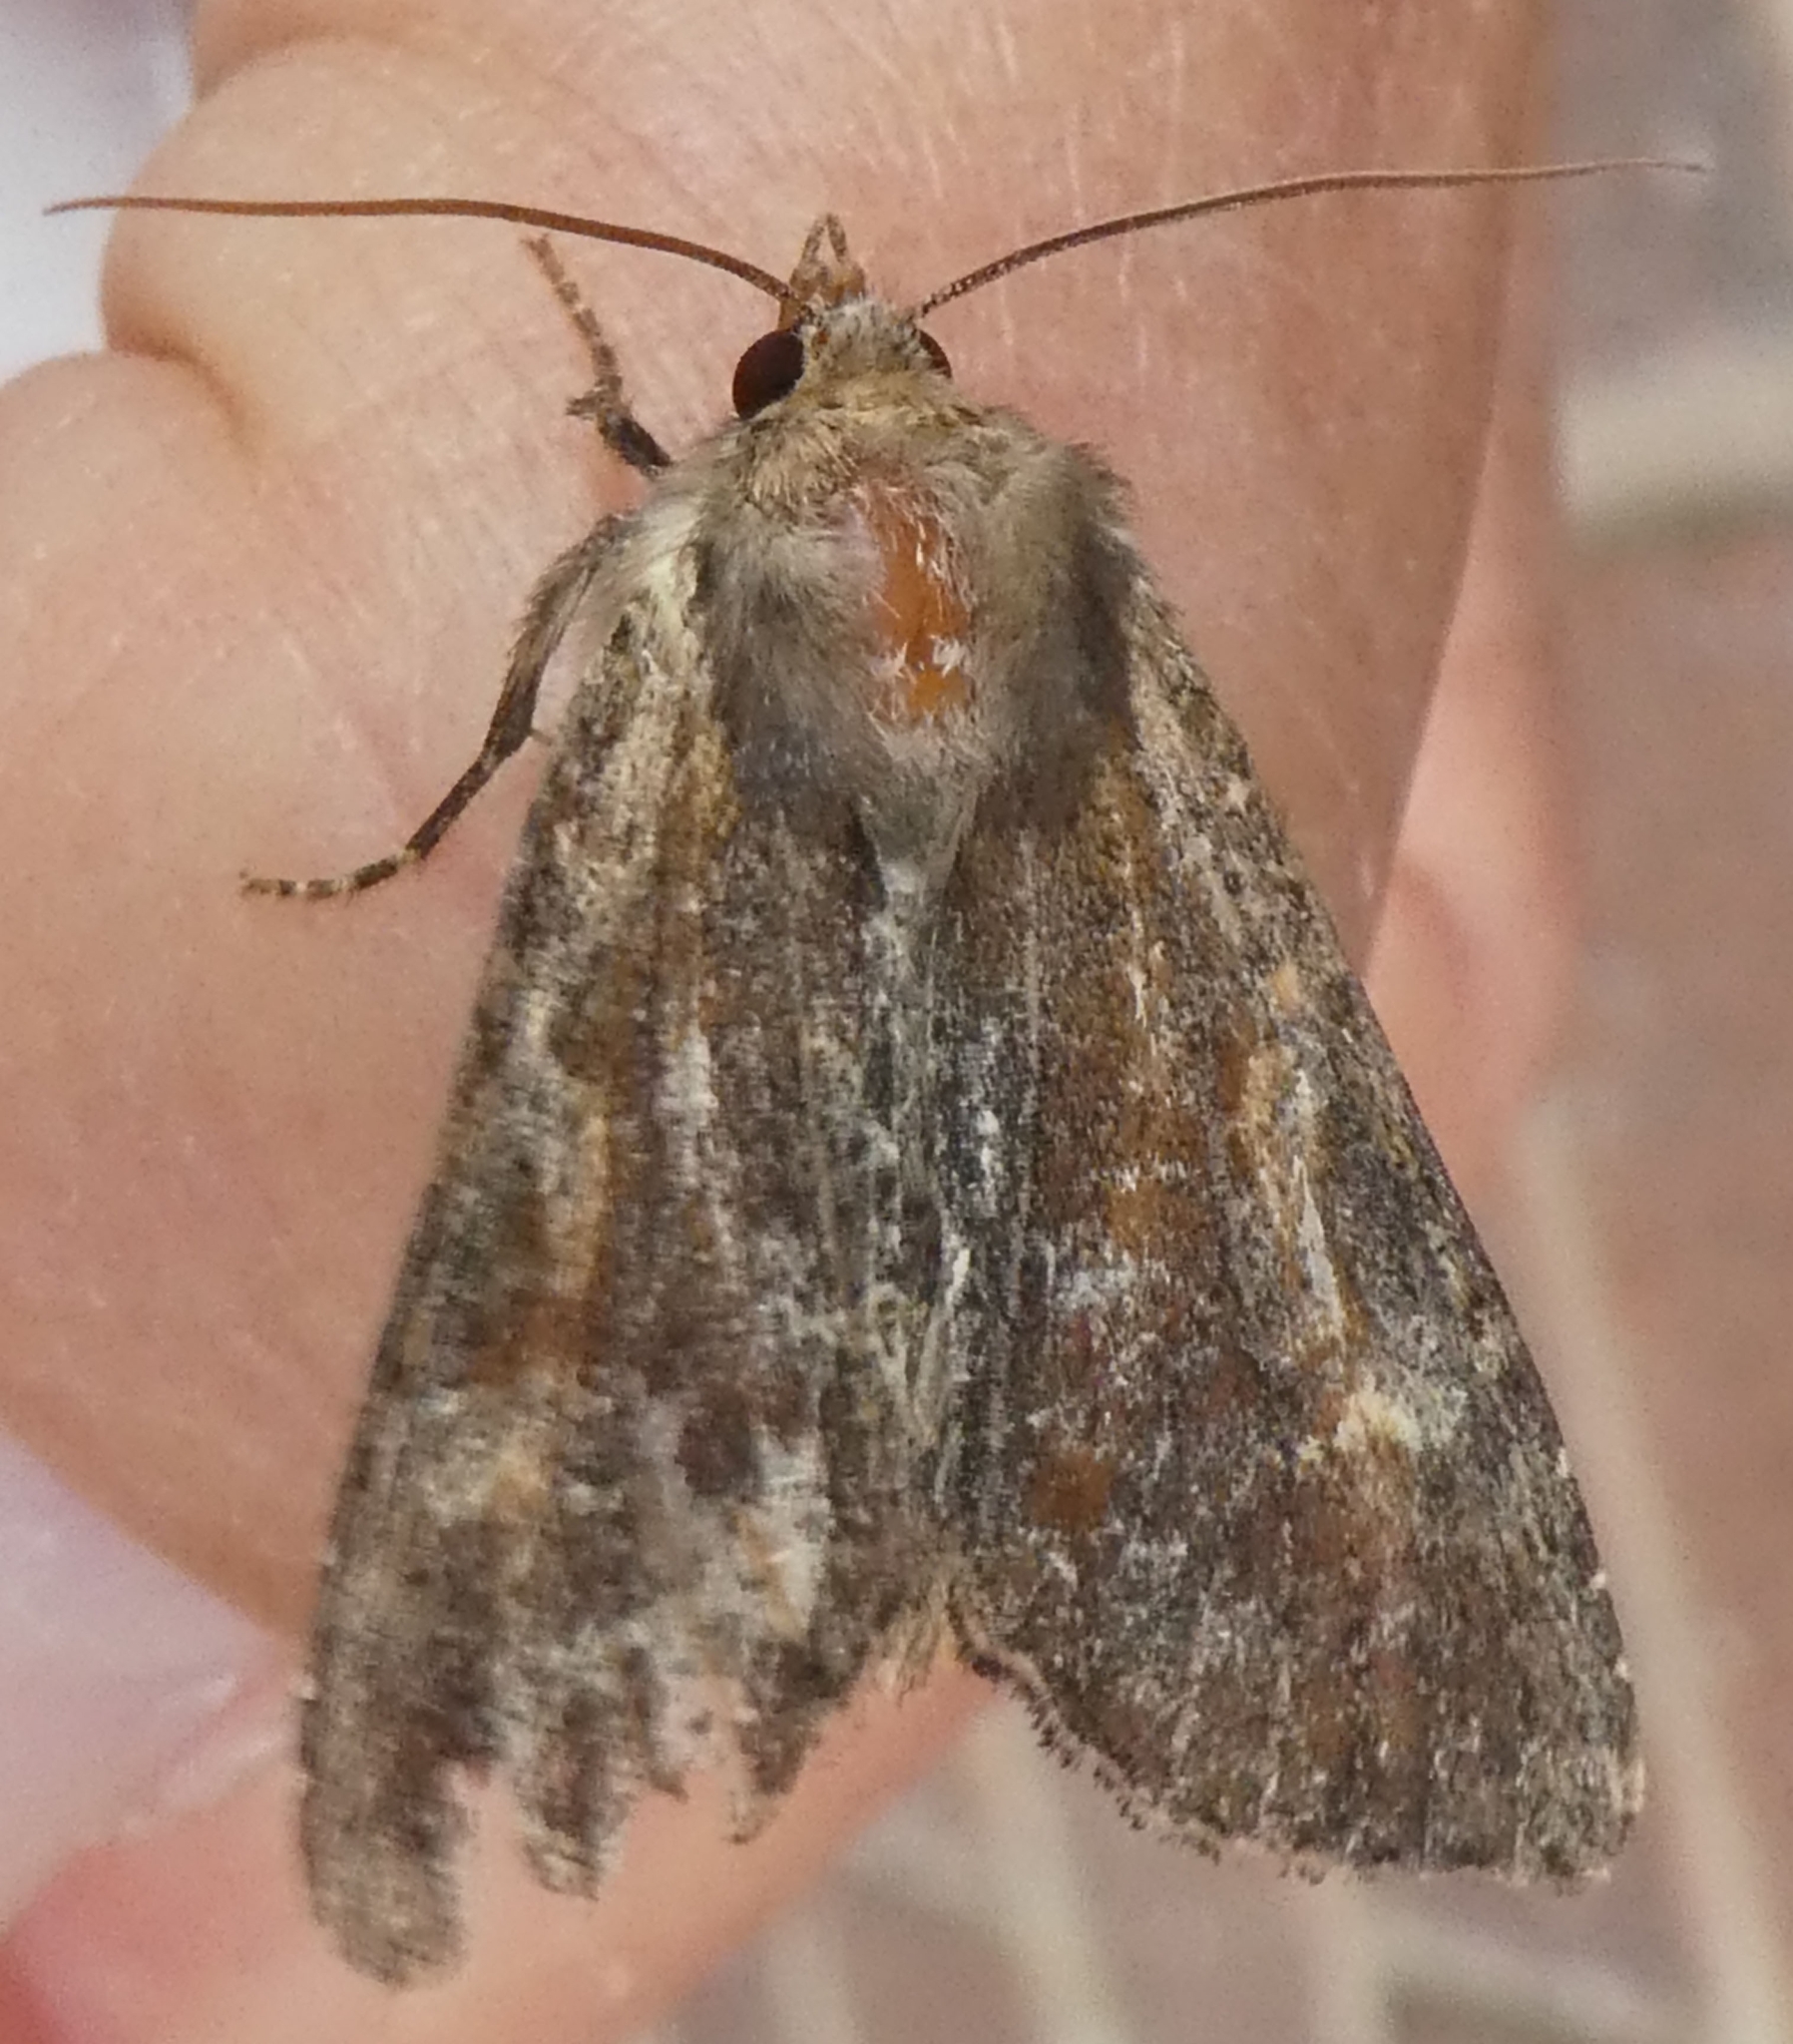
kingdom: Animalia
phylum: Arthropoda
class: Insecta
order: Lepidoptera
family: Noctuidae
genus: Apamea
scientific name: Apamea crenata
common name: Clouded-bordered brindle
